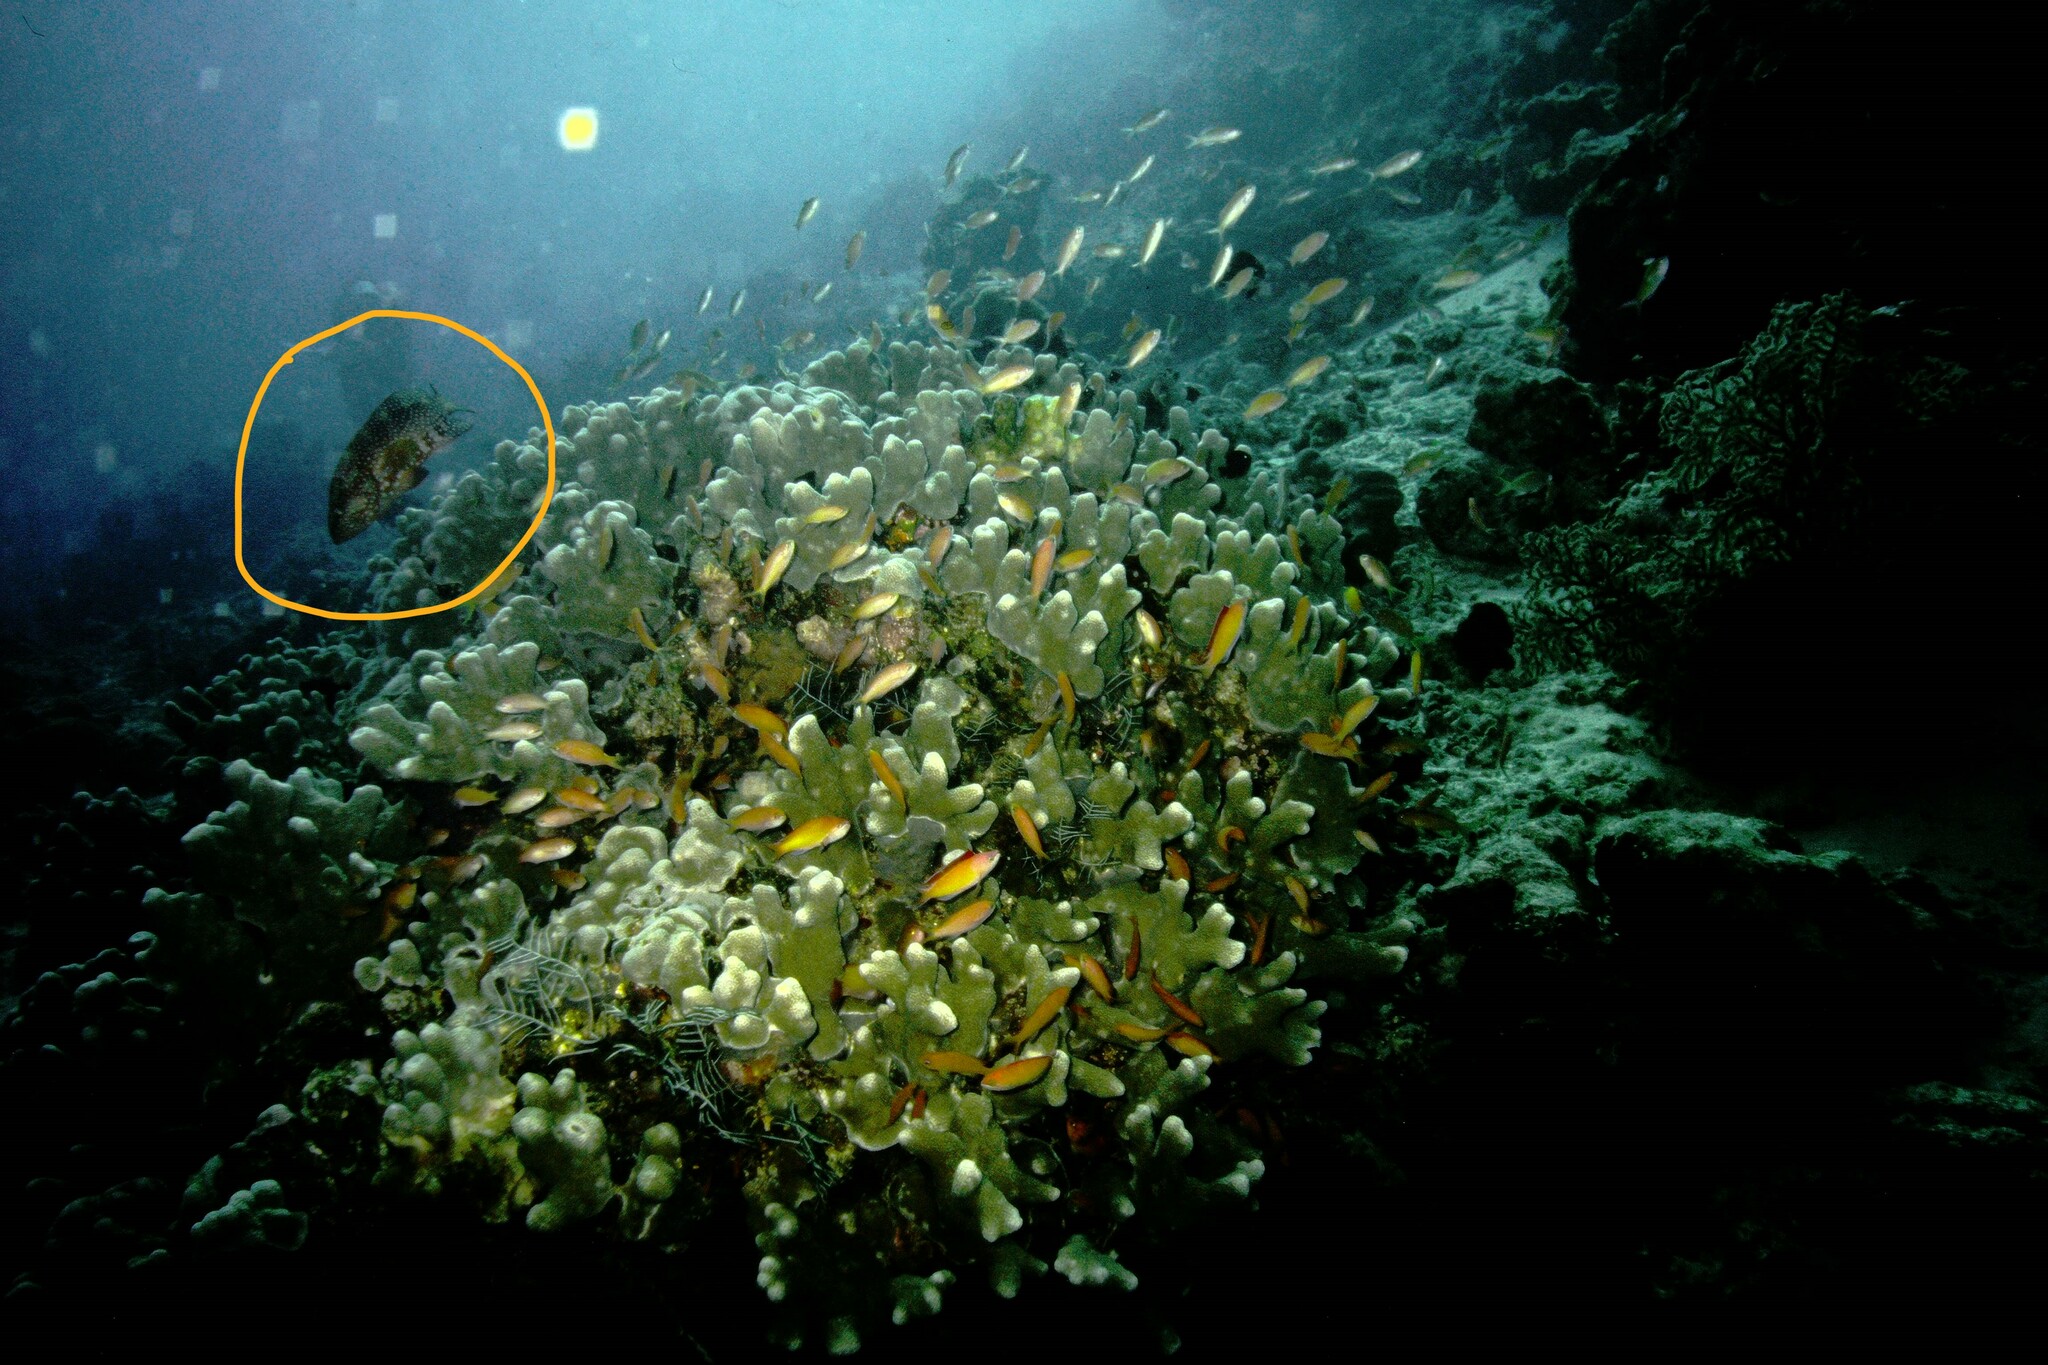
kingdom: Animalia
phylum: Chordata
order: Perciformes
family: Serranidae
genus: Cephalopholis
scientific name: Cephalopholis miniata
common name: Coral hind
